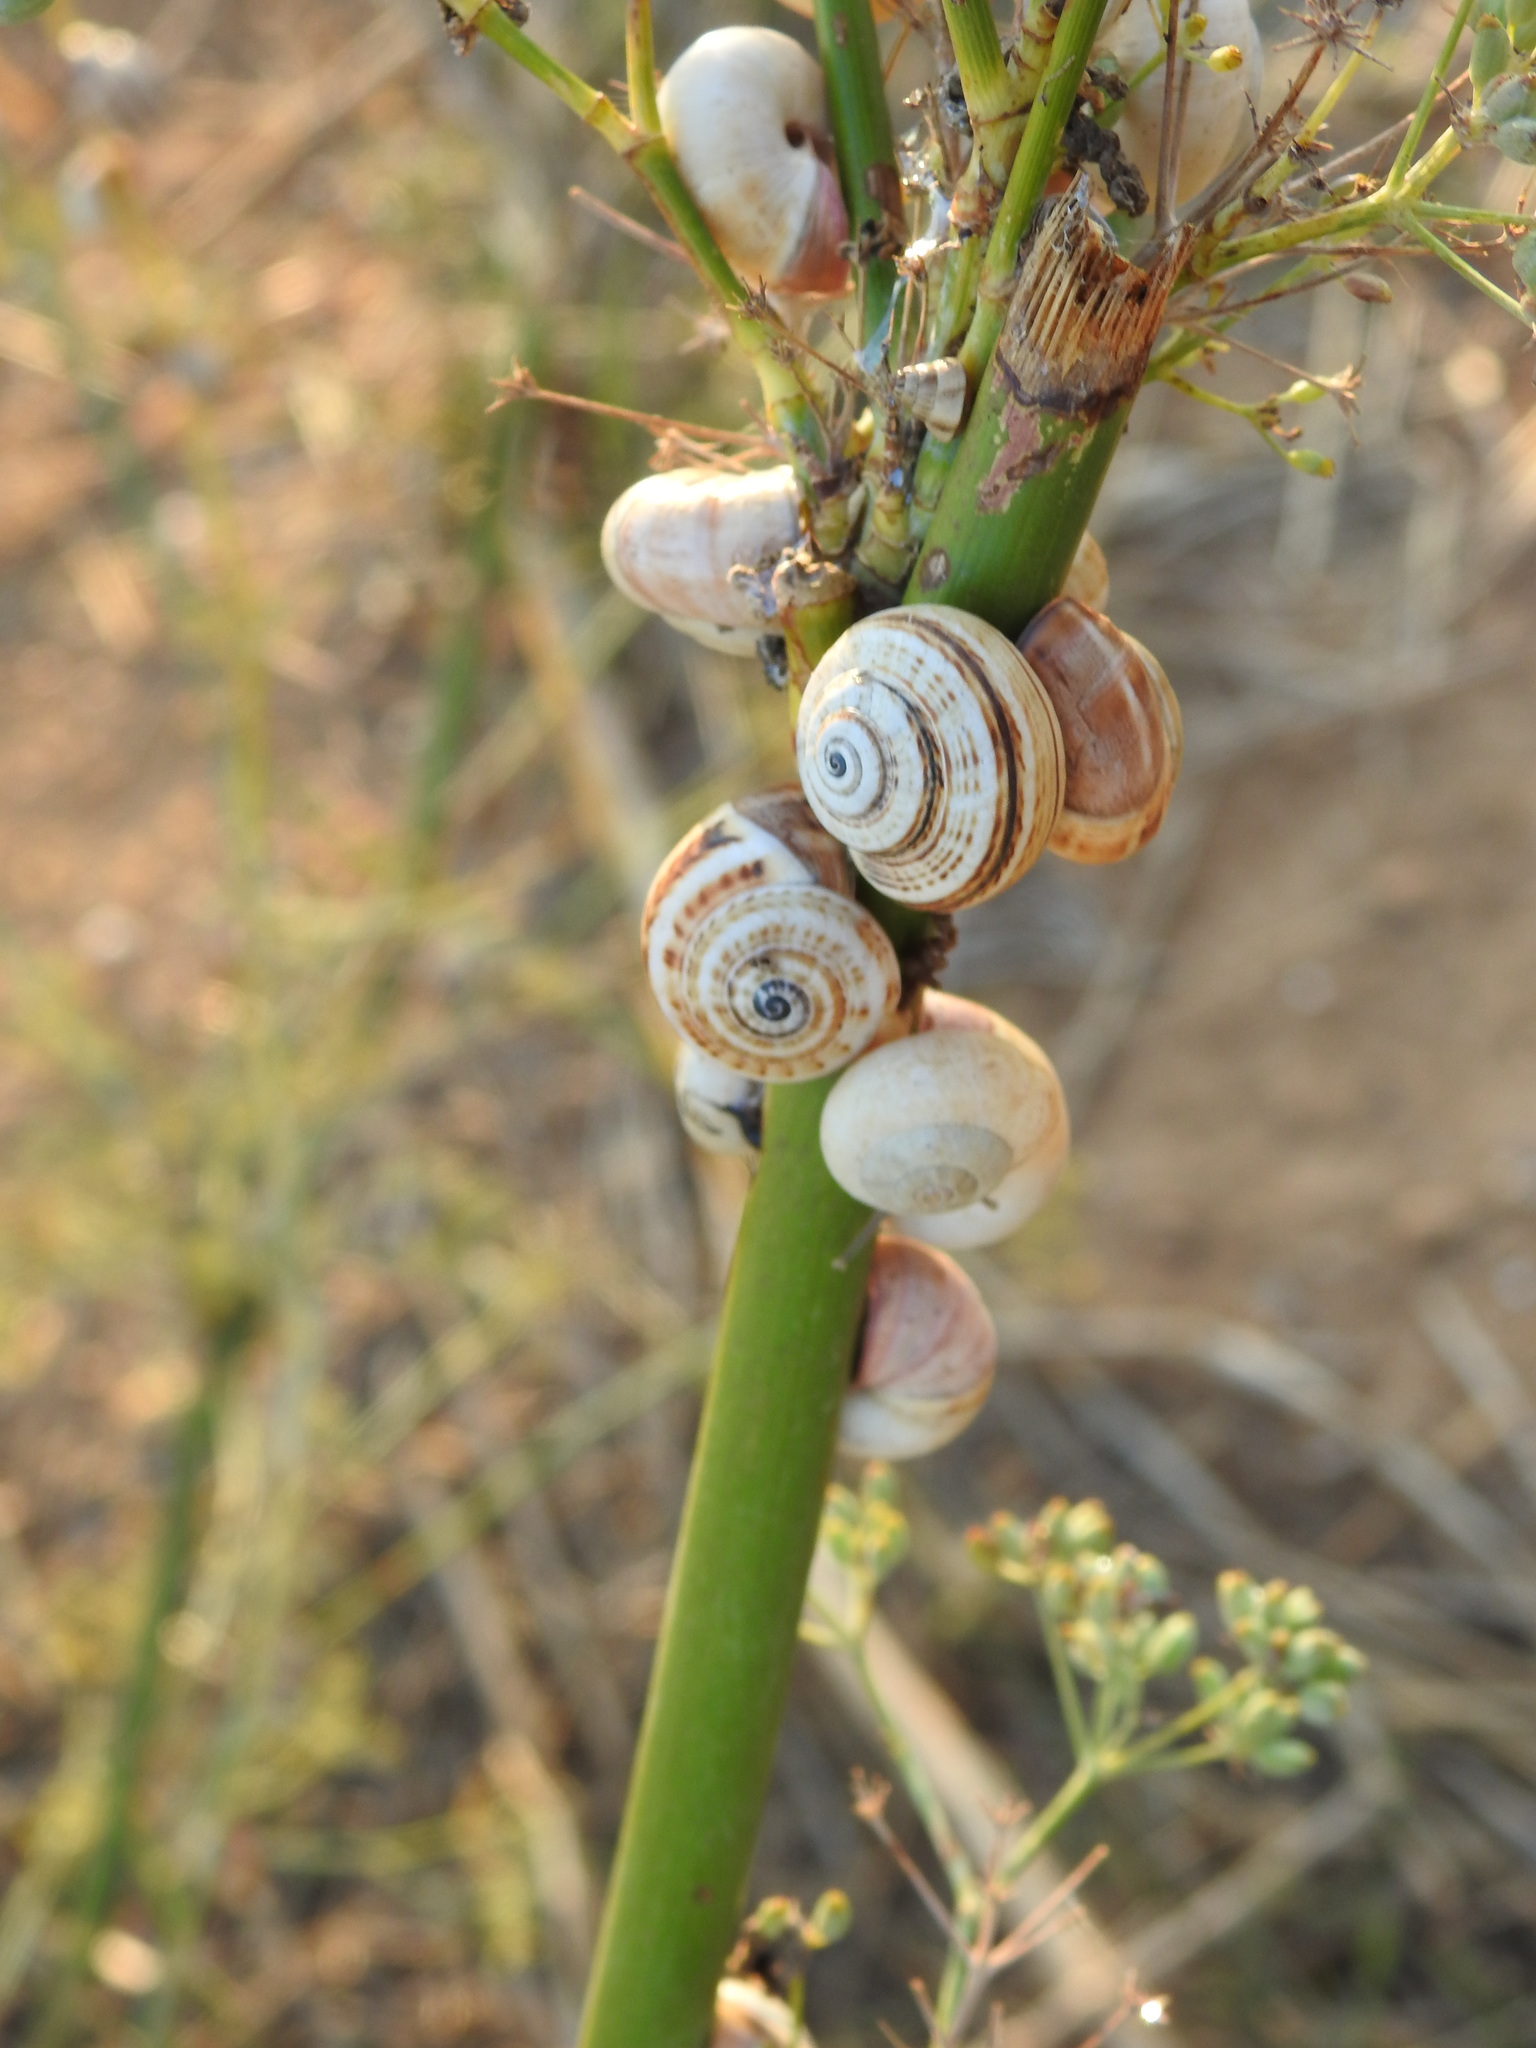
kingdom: Animalia
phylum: Mollusca
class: Gastropoda
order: Stylommatophora
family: Helicidae
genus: Theba
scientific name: Theba pisana
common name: White snail
